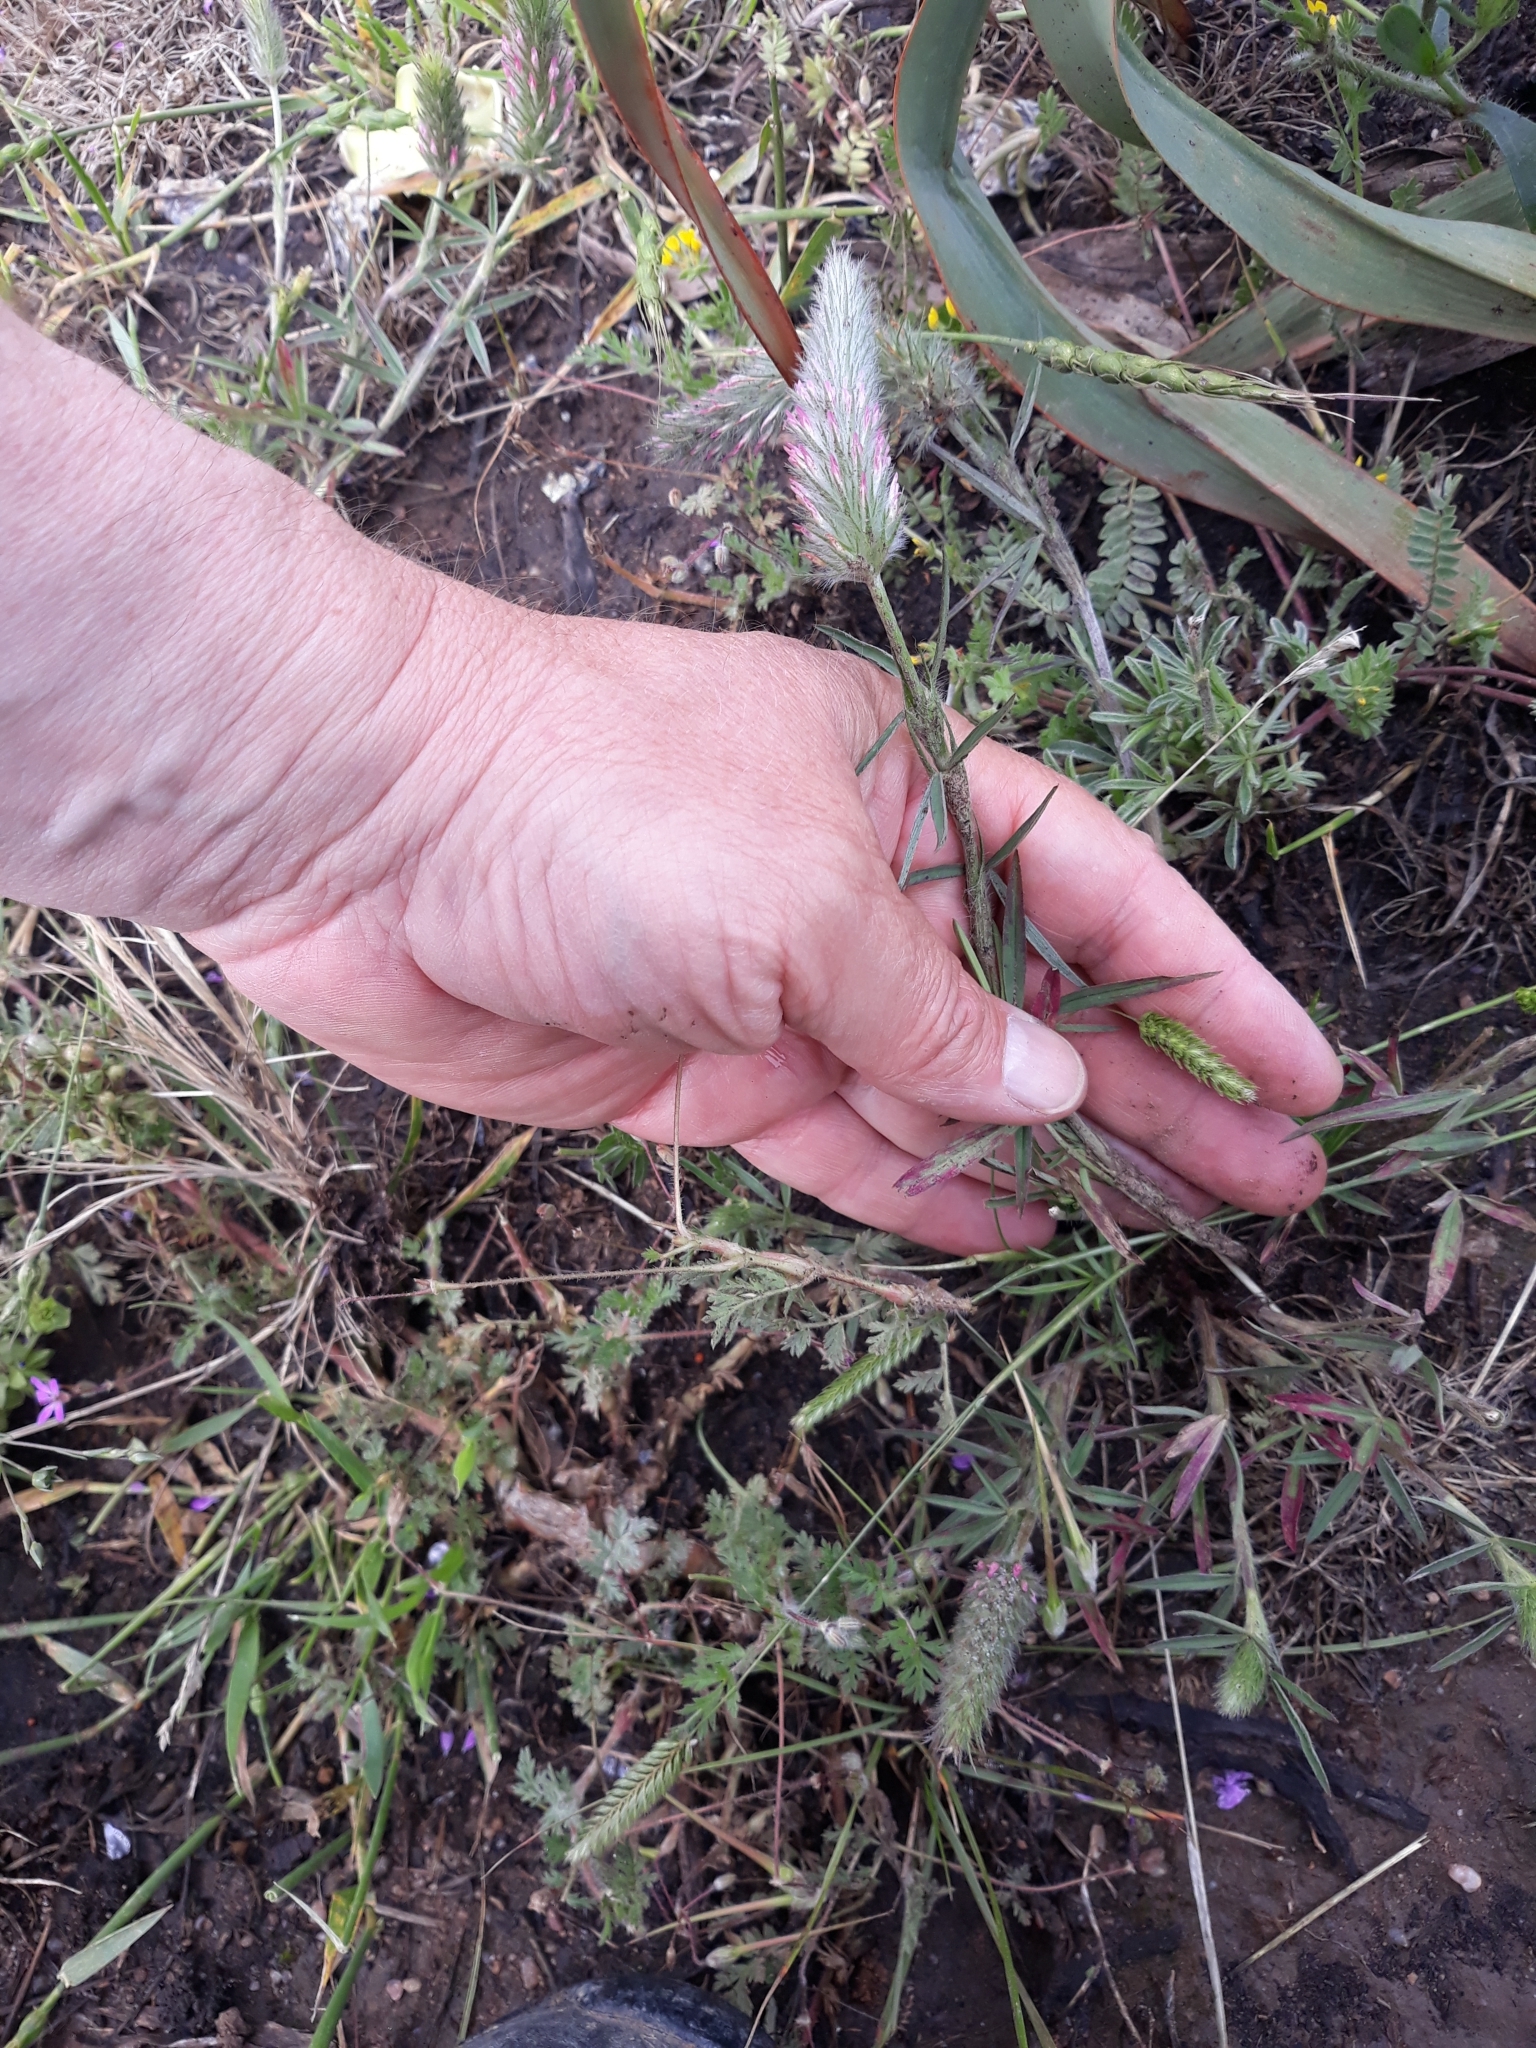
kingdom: Plantae
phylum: Tracheophyta
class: Magnoliopsida
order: Fabales
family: Fabaceae
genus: Trifolium
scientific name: Trifolium angustifolium
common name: Narrow clover
